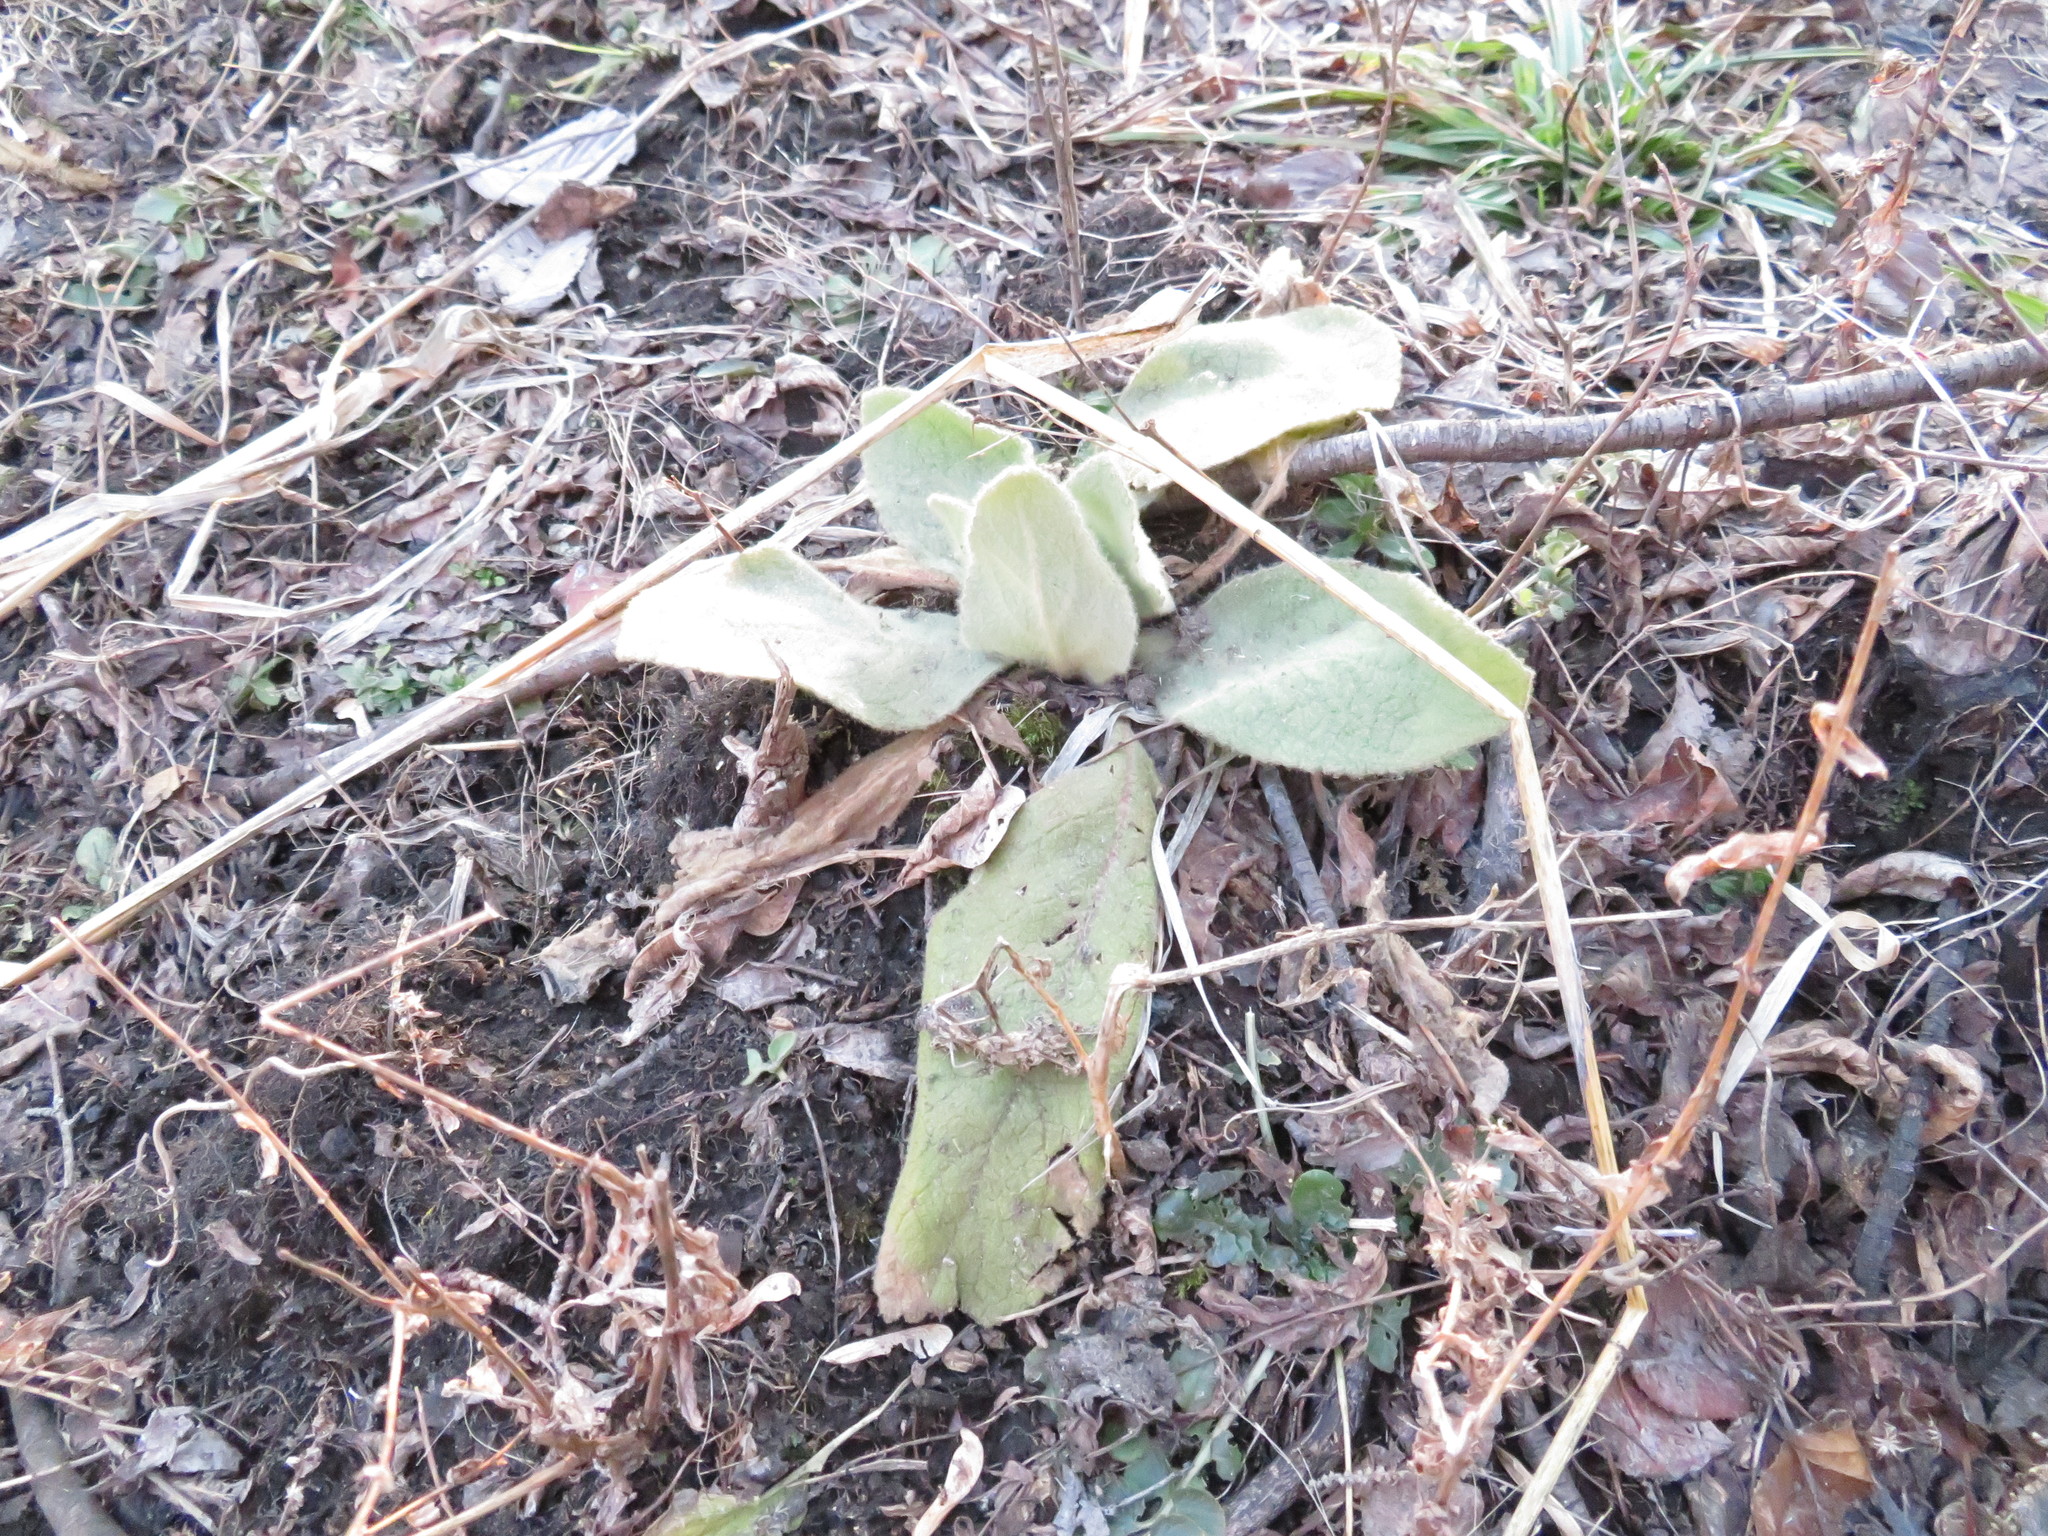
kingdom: Plantae
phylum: Tracheophyta
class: Magnoliopsida
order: Lamiales
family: Scrophulariaceae
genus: Verbascum
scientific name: Verbascum thapsus
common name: Common mullein
